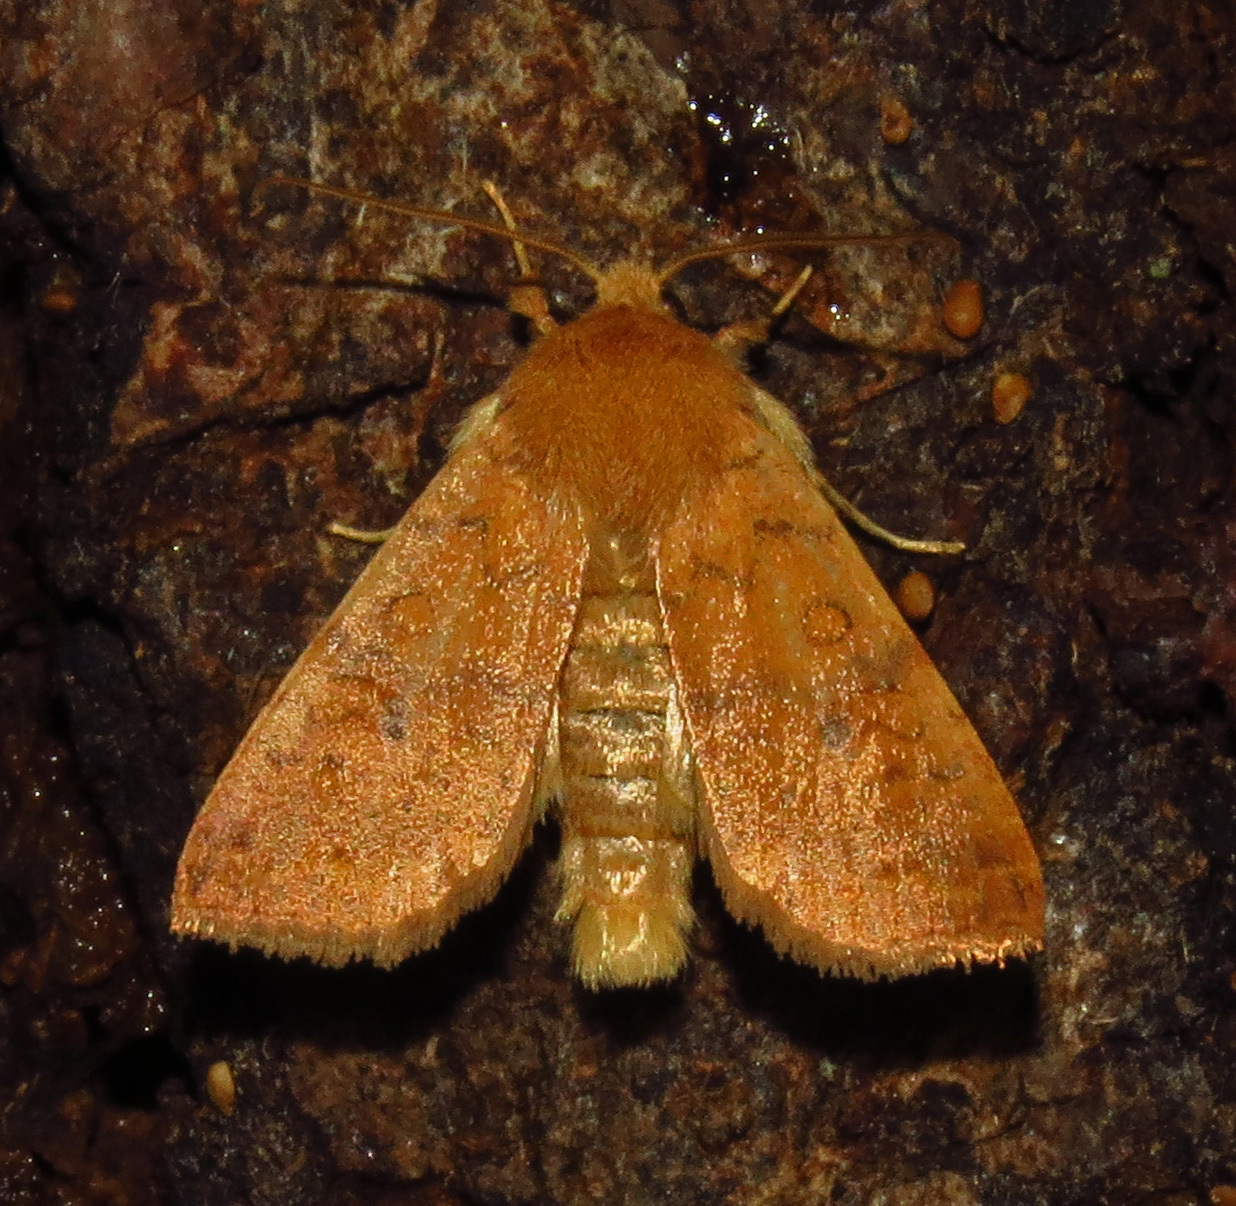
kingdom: Animalia
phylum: Arthropoda
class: Insecta
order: Lepidoptera
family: Noctuidae
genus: Agrochola
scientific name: Agrochola bicolorago
